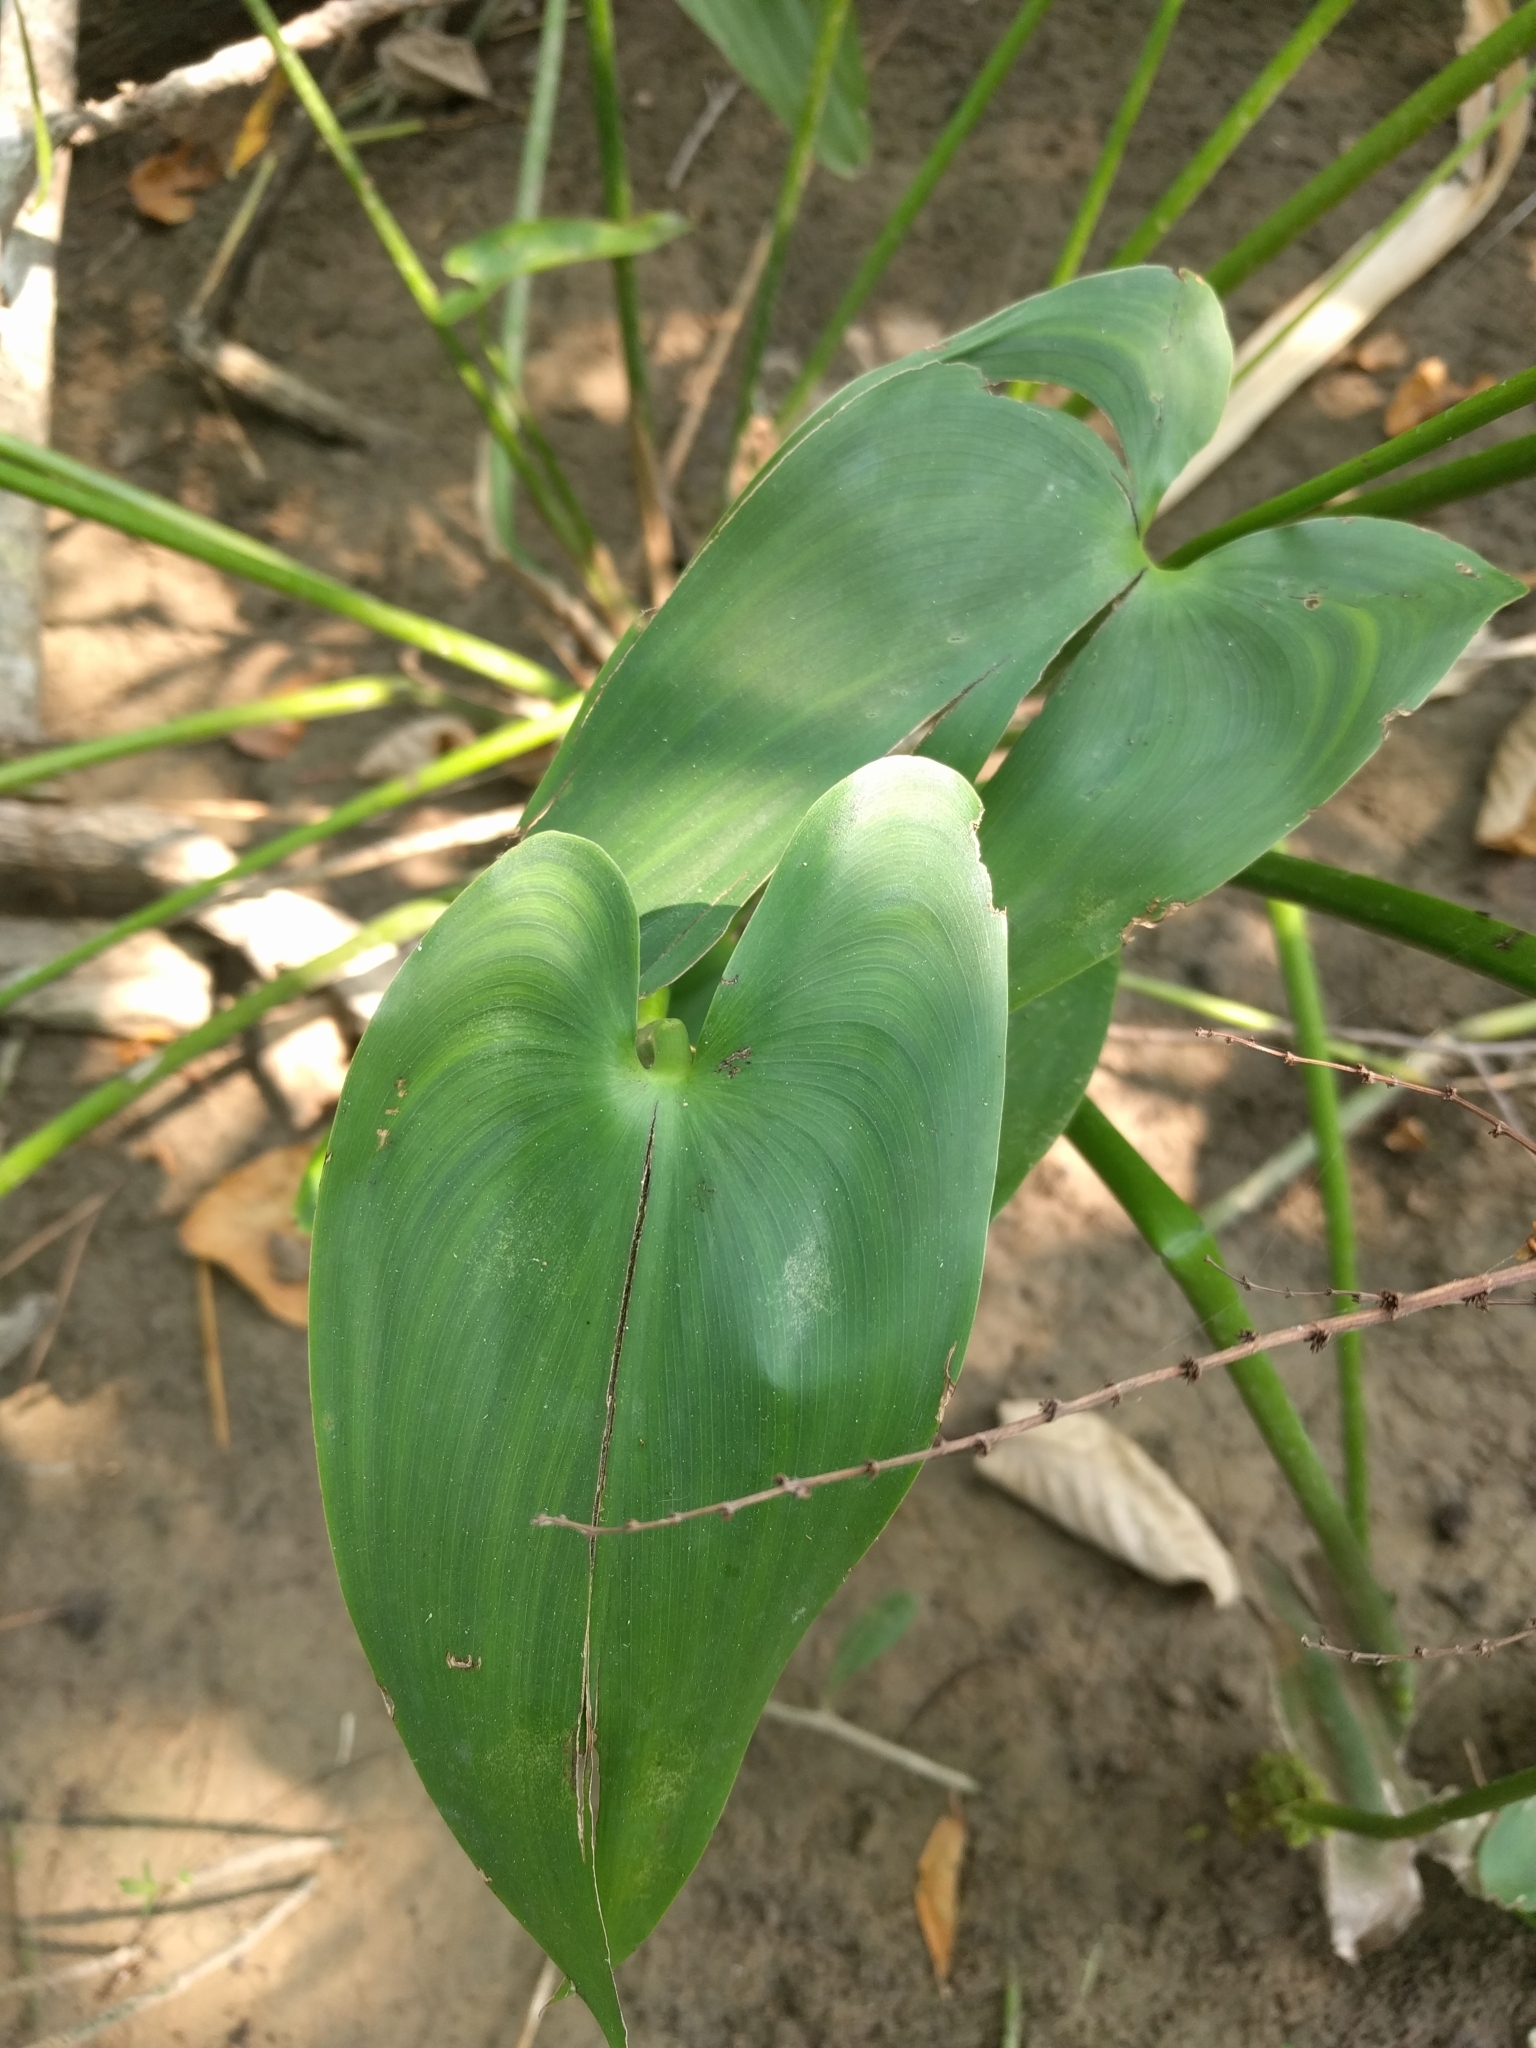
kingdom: Plantae
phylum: Tracheophyta
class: Liliopsida
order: Commelinales
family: Pontederiaceae
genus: Pontederia
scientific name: Pontederia cordata
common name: Pickerelweed
